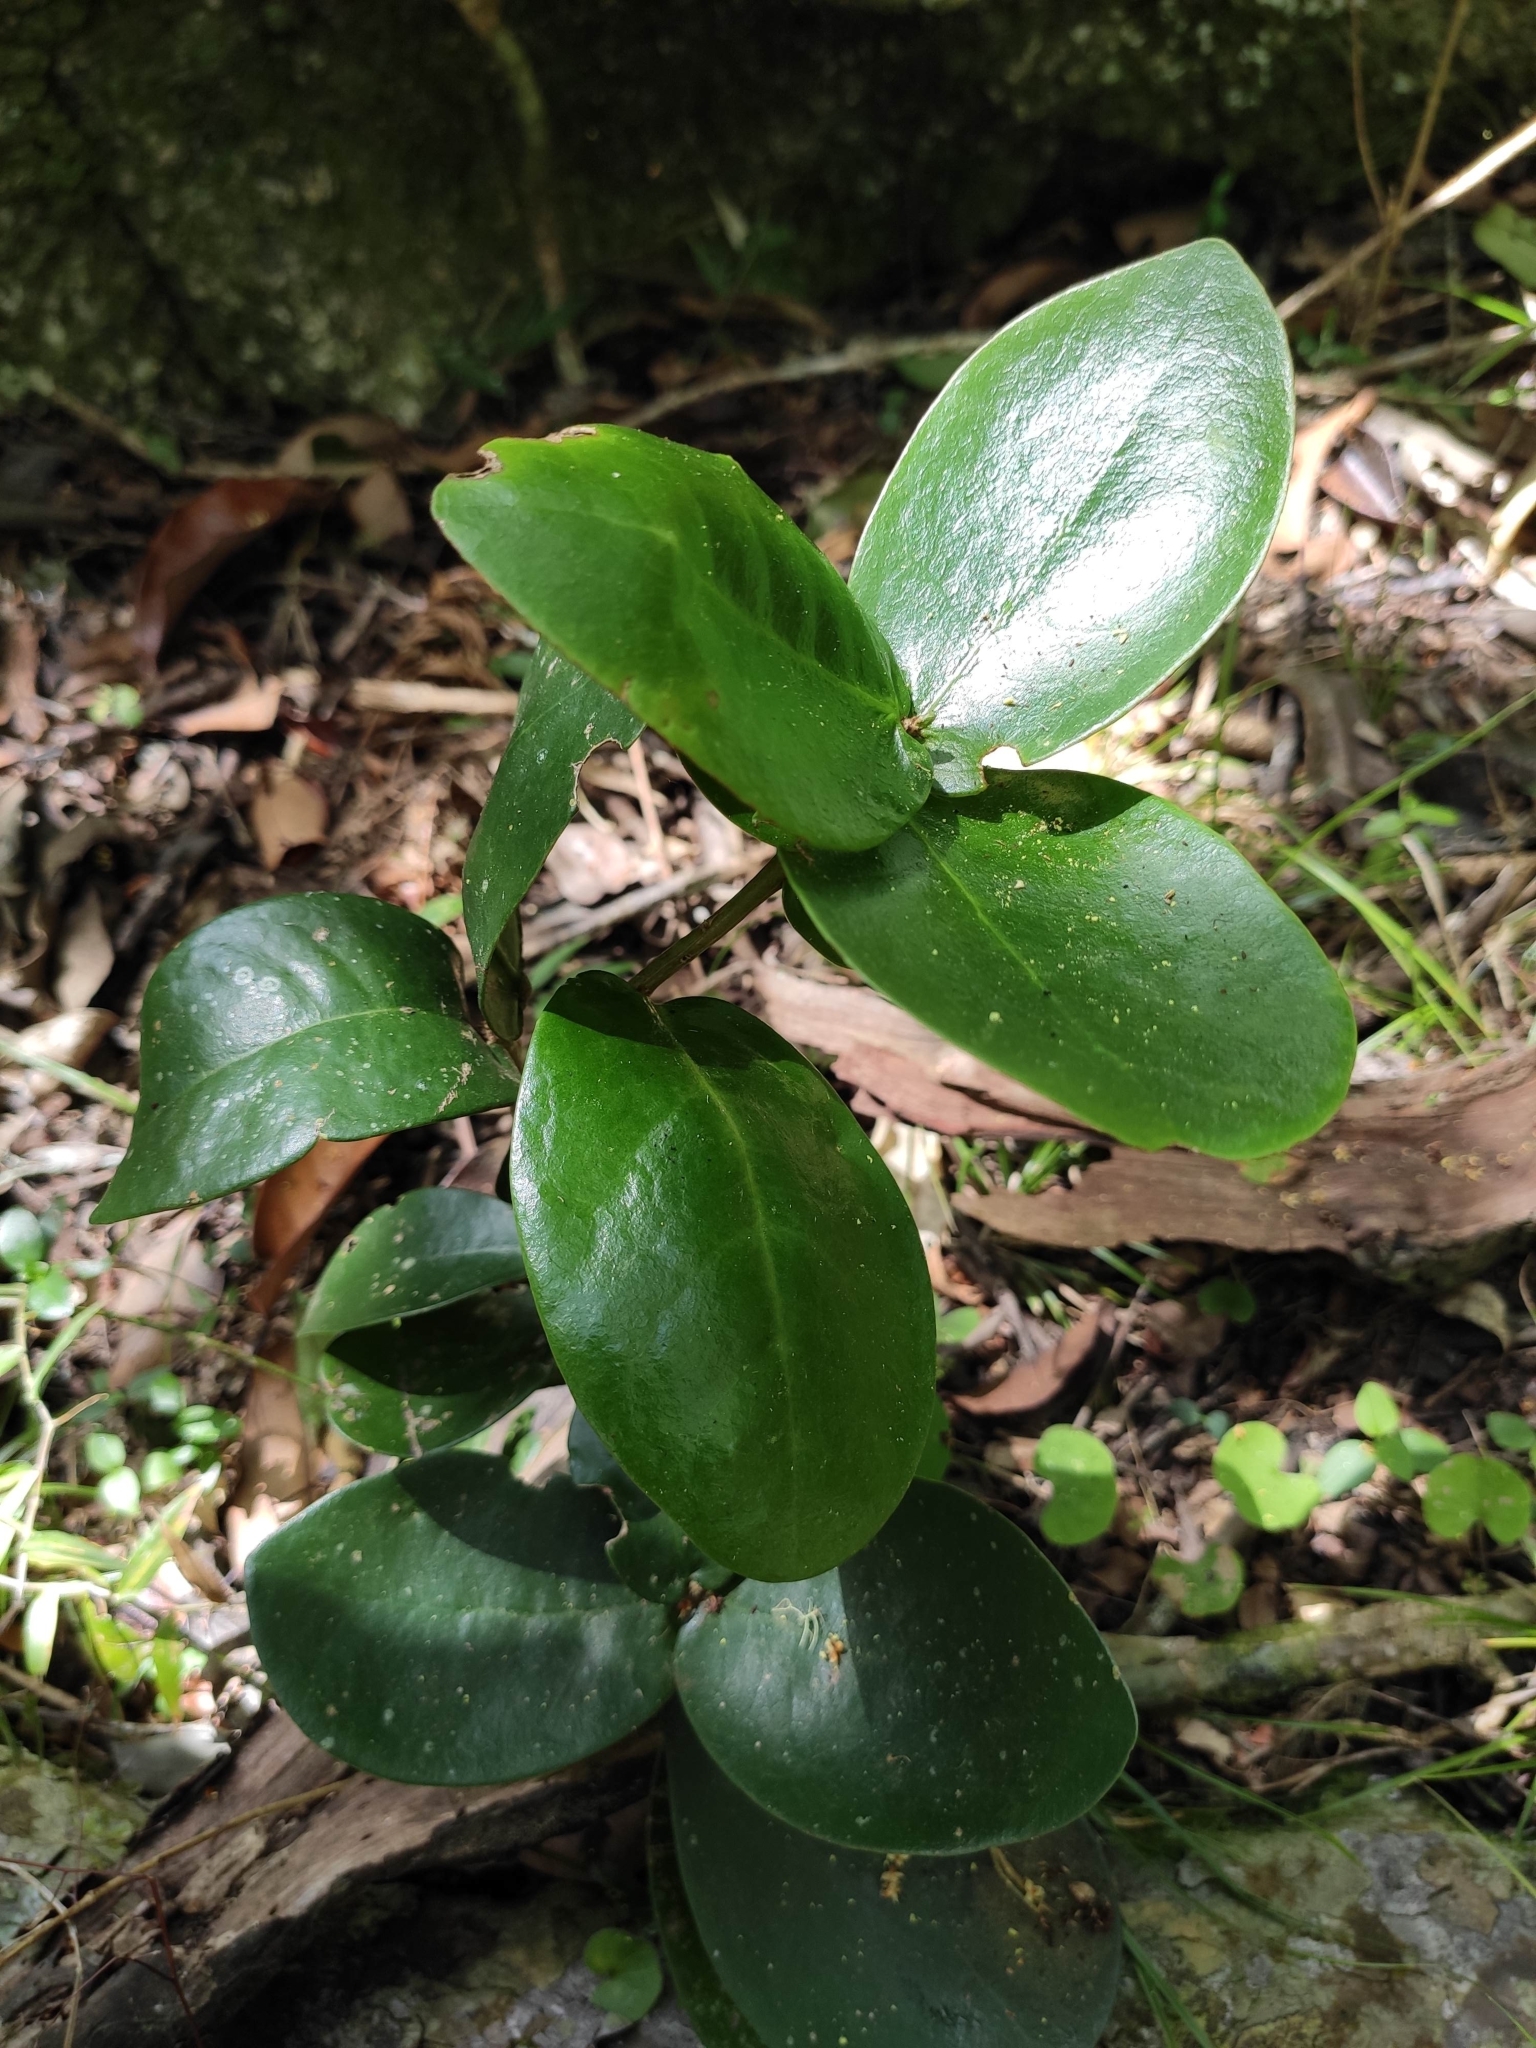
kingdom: Plantae
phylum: Tracheophyta
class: Magnoliopsida
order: Malvales
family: Thymelaeaceae
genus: Daphnopsis
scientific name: Daphnopsis racemosa
